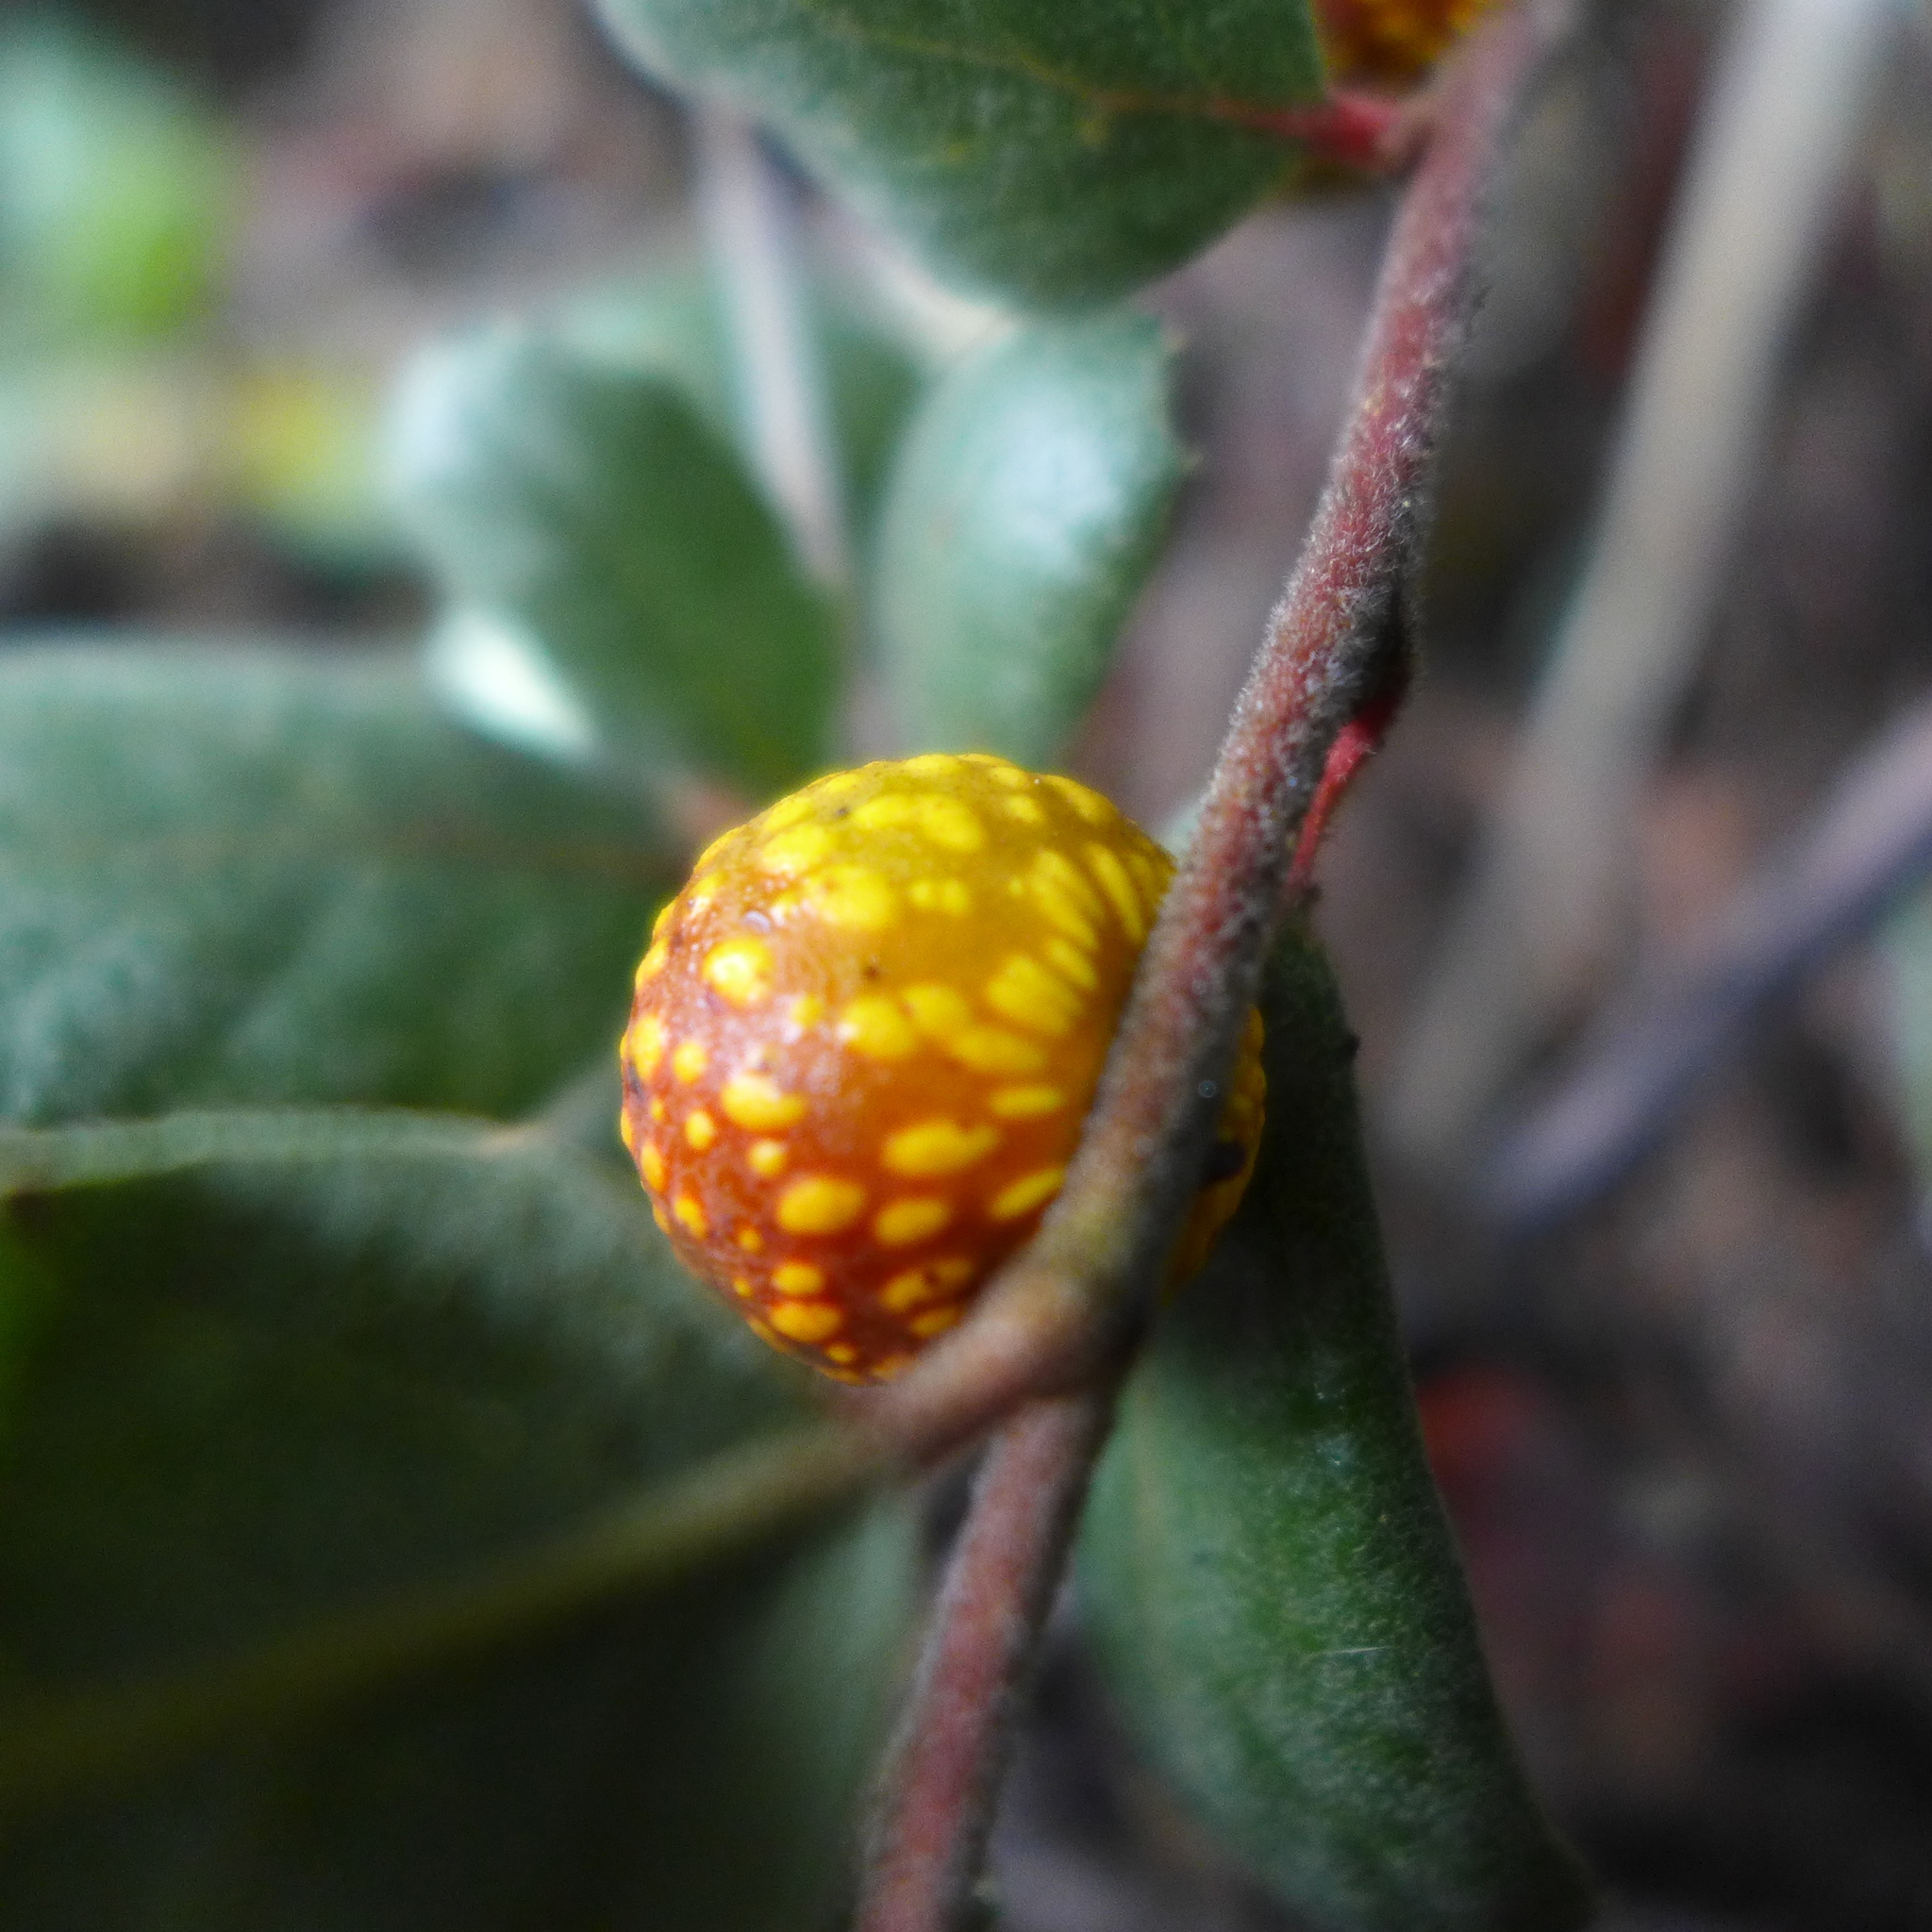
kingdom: Animalia
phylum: Arthropoda
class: Insecta
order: Hymenoptera
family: Cynipidae
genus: Burnettweldia
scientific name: Burnettweldia
